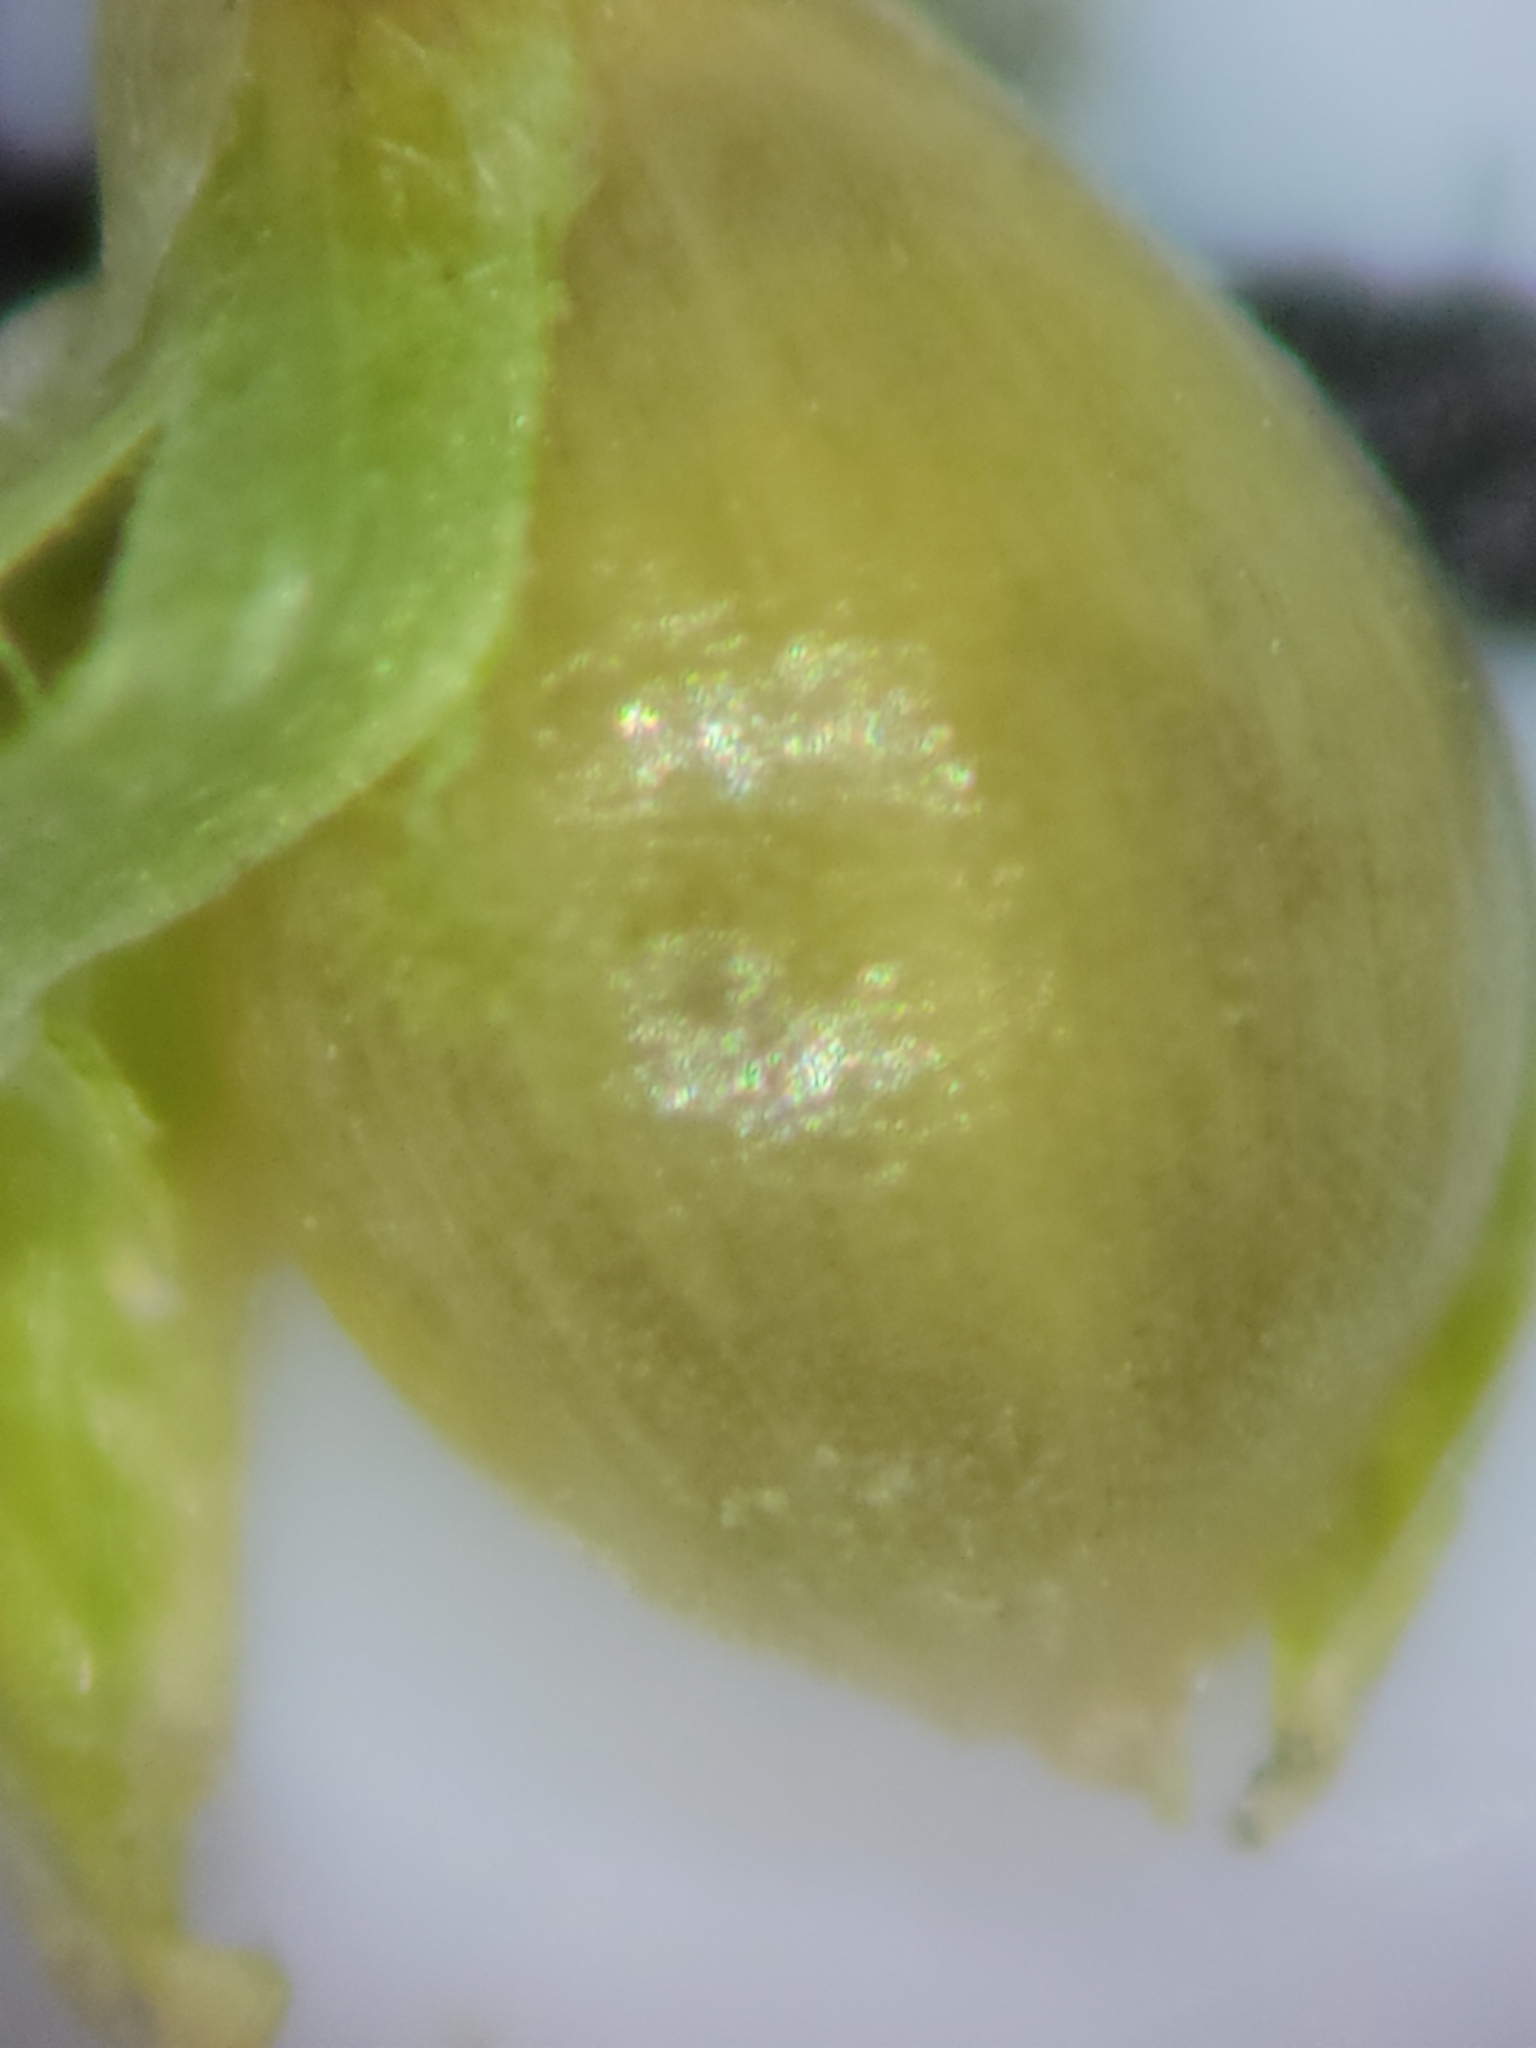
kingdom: Plantae
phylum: Tracheophyta
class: Liliopsida
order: Poales
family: Poaceae
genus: Dichanthelium
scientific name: Dichanthelium webberianum
